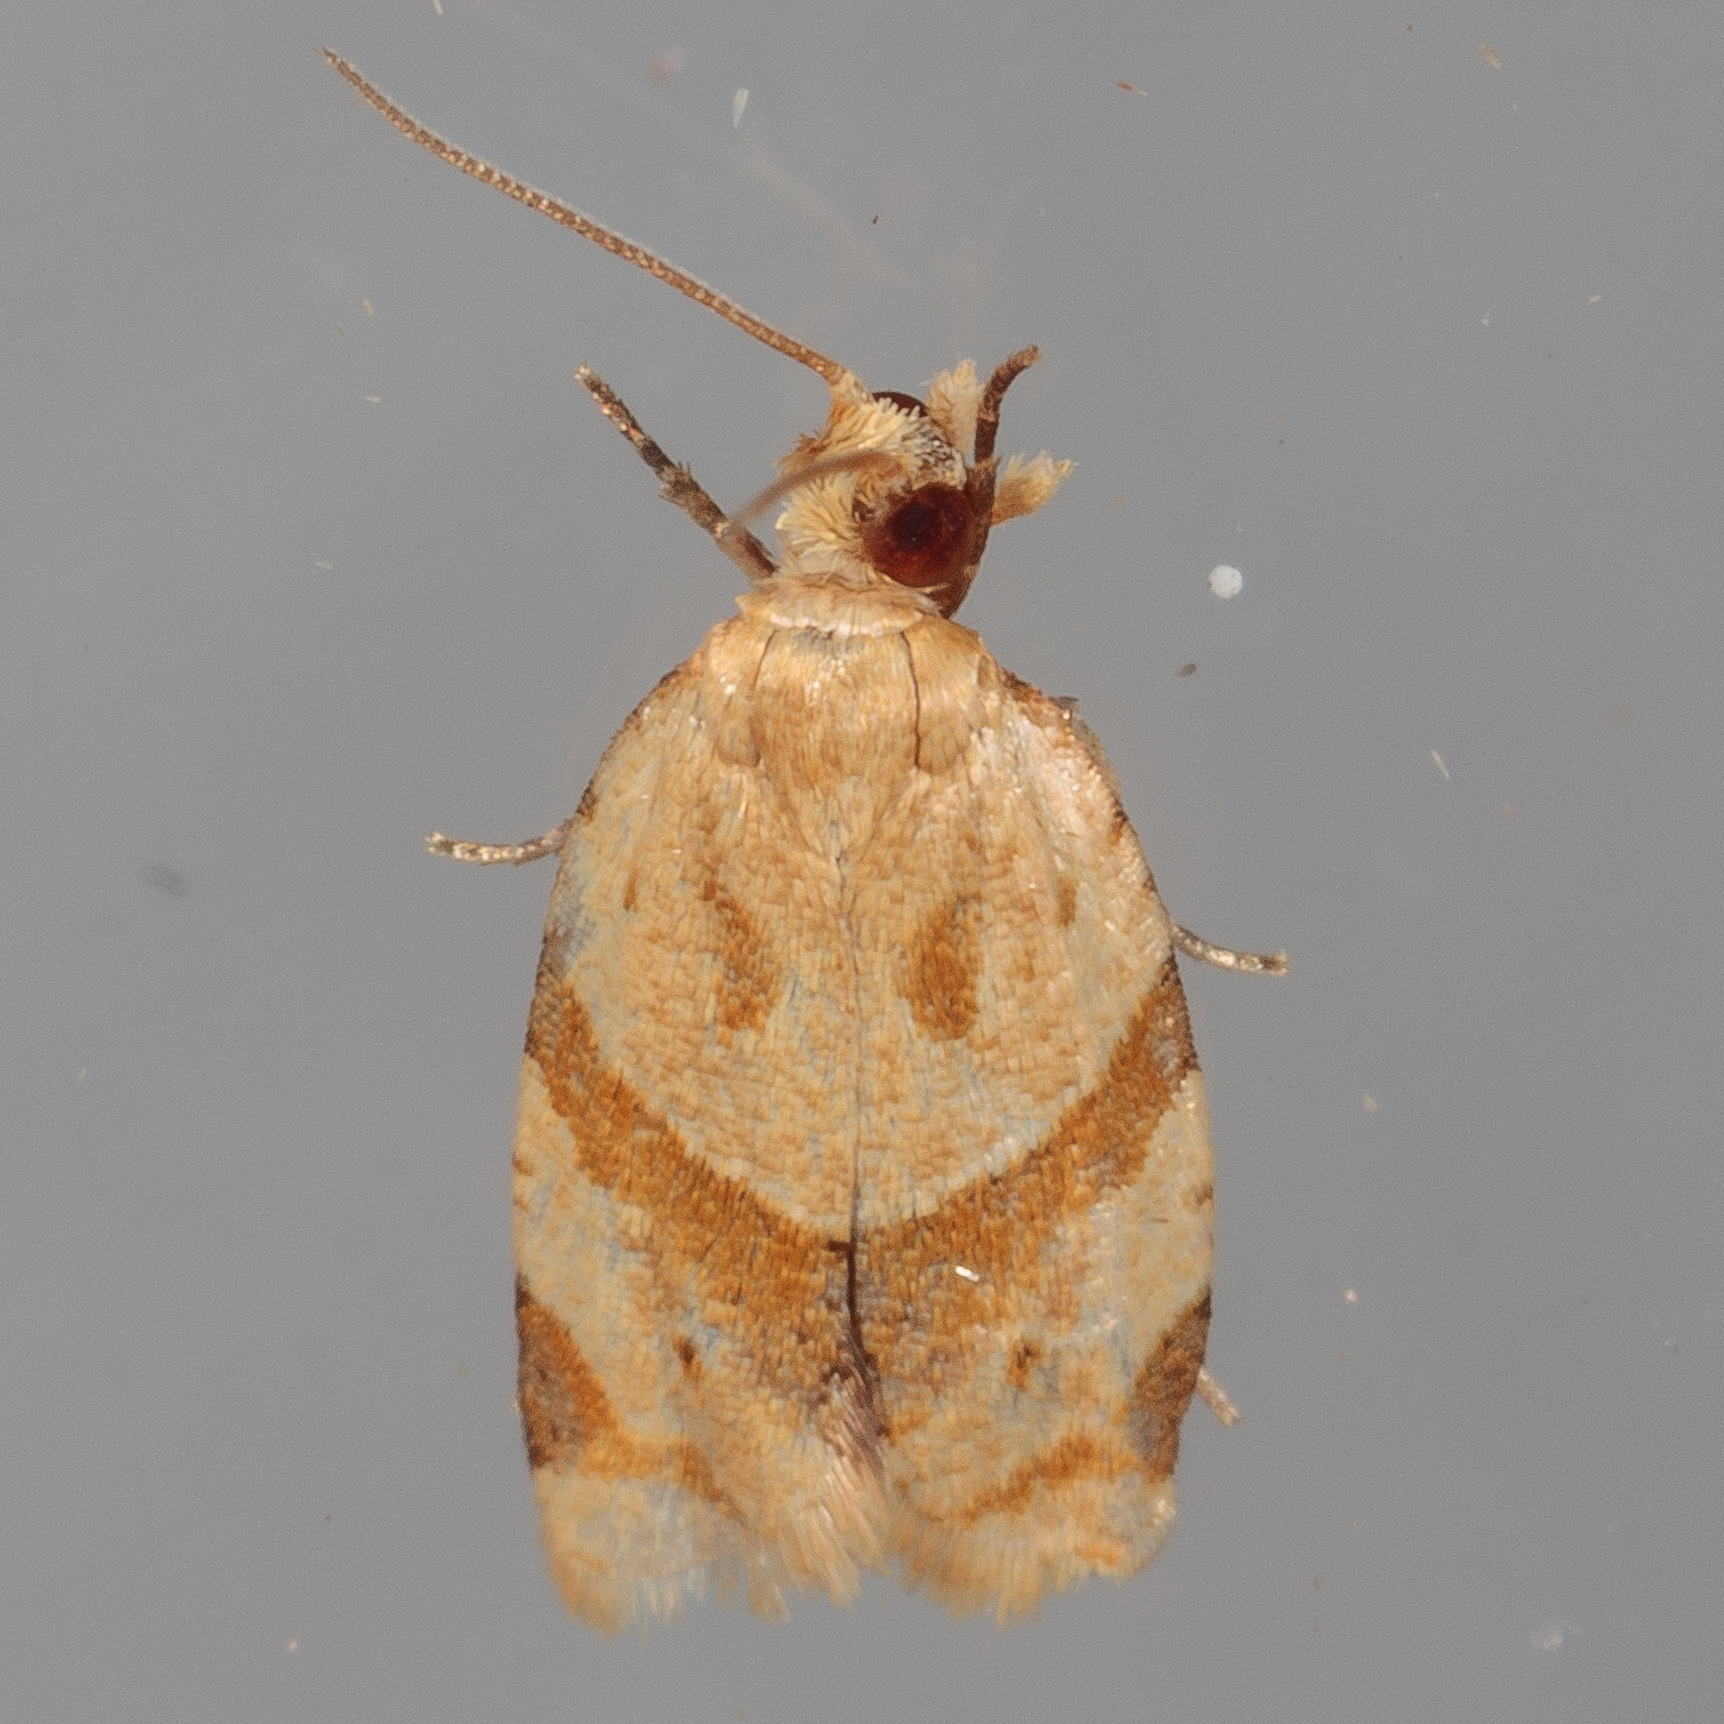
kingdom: Animalia
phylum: Arthropoda
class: Insecta
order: Lepidoptera
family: Tortricidae
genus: Clepsis
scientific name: Clepsis peritana
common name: Garden tortrix
